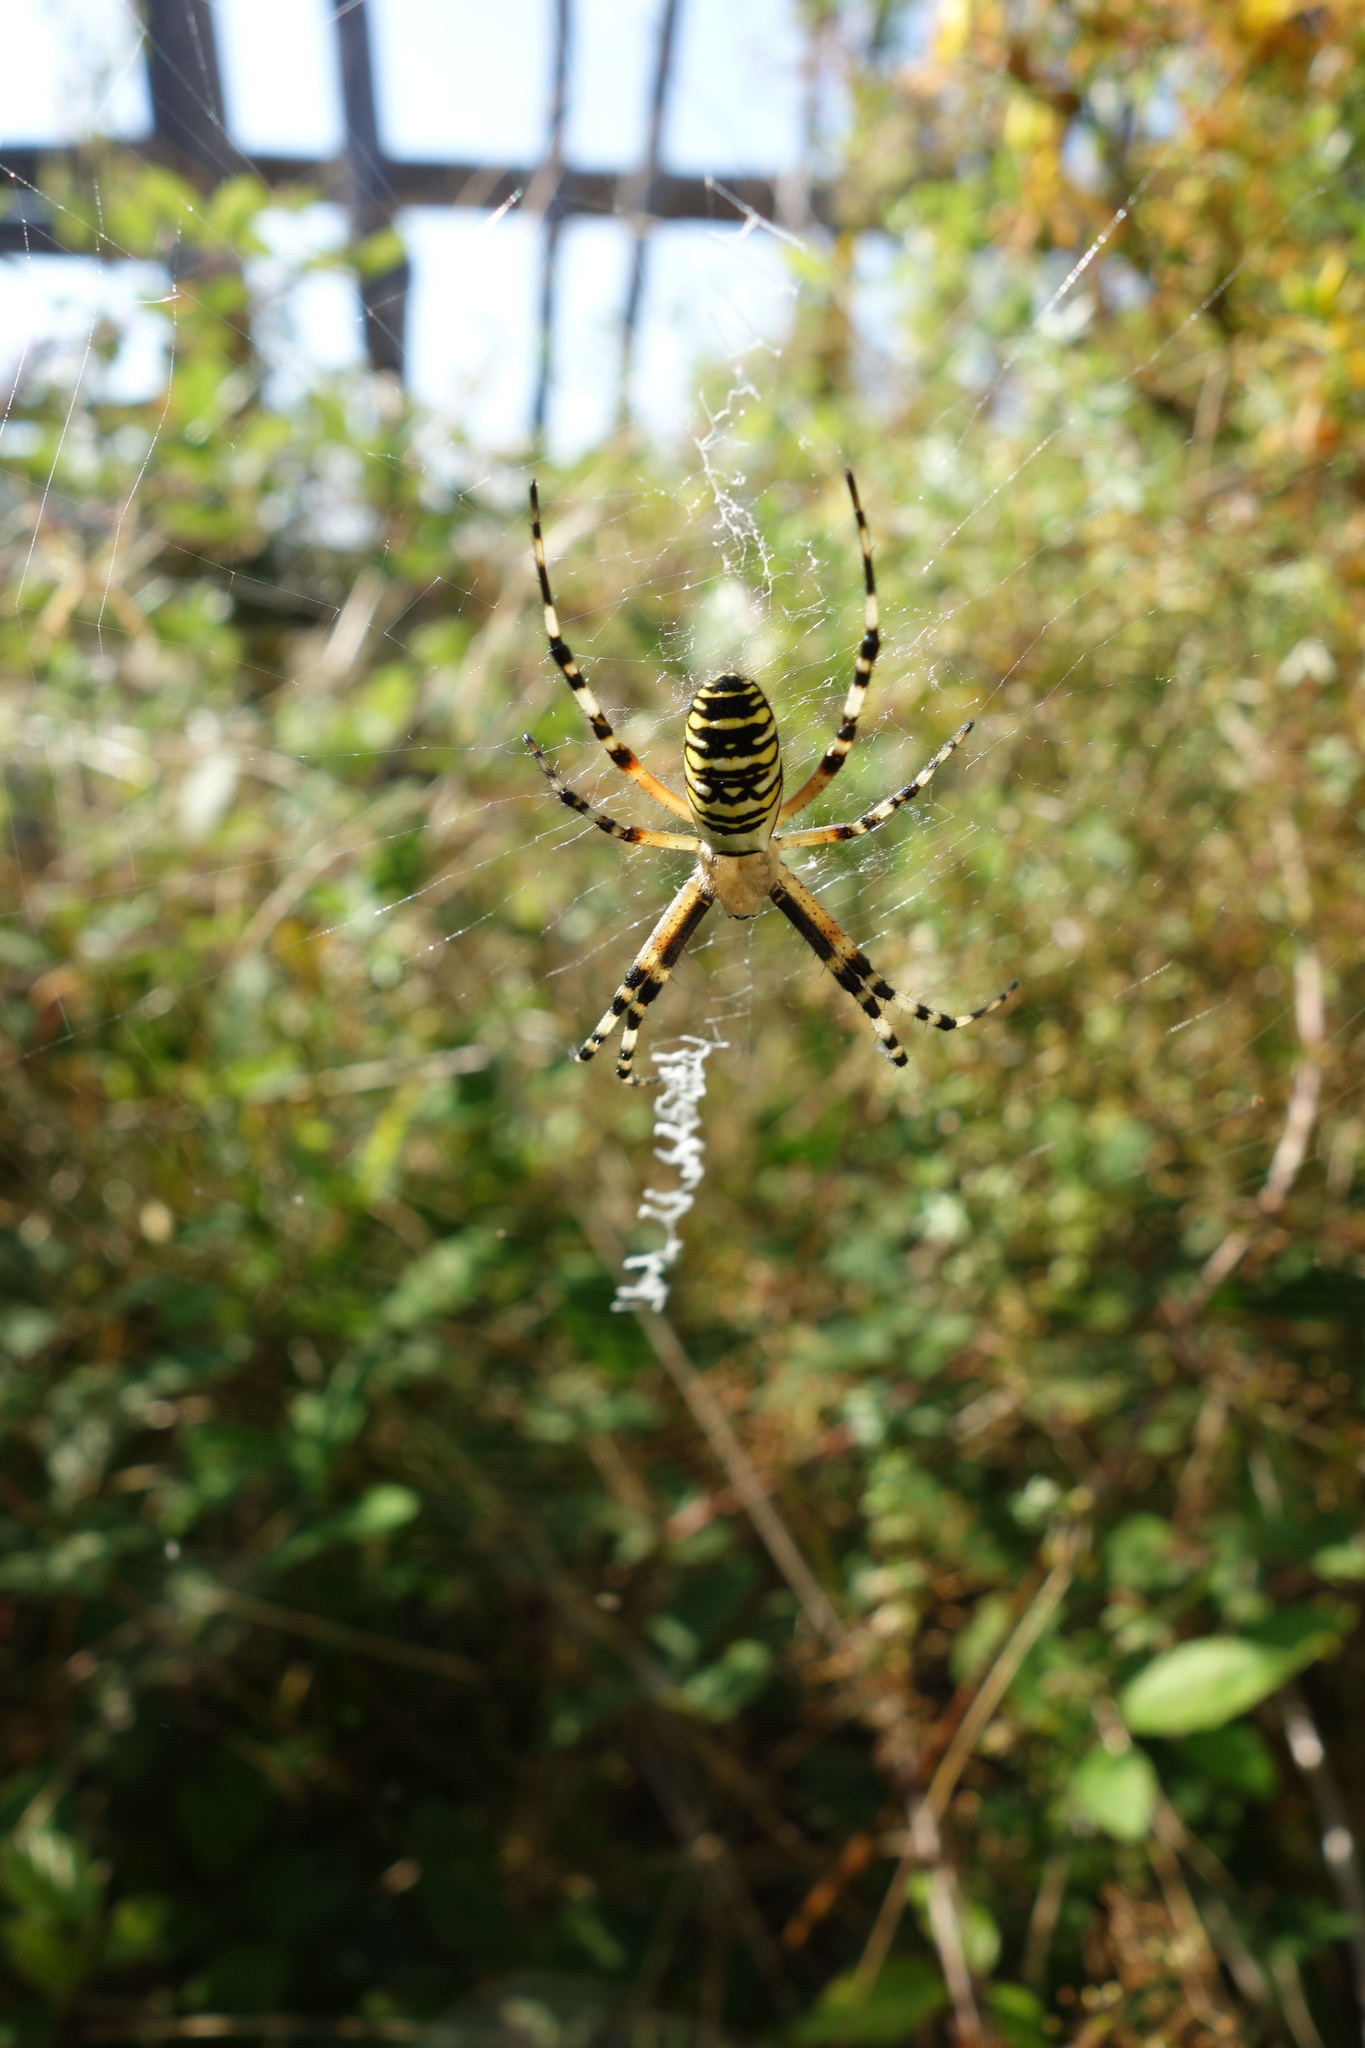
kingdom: Animalia
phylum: Arthropoda
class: Arachnida
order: Araneae
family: Araneidae
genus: Argiope
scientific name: Argiope bruennichi
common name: Wasp spider
